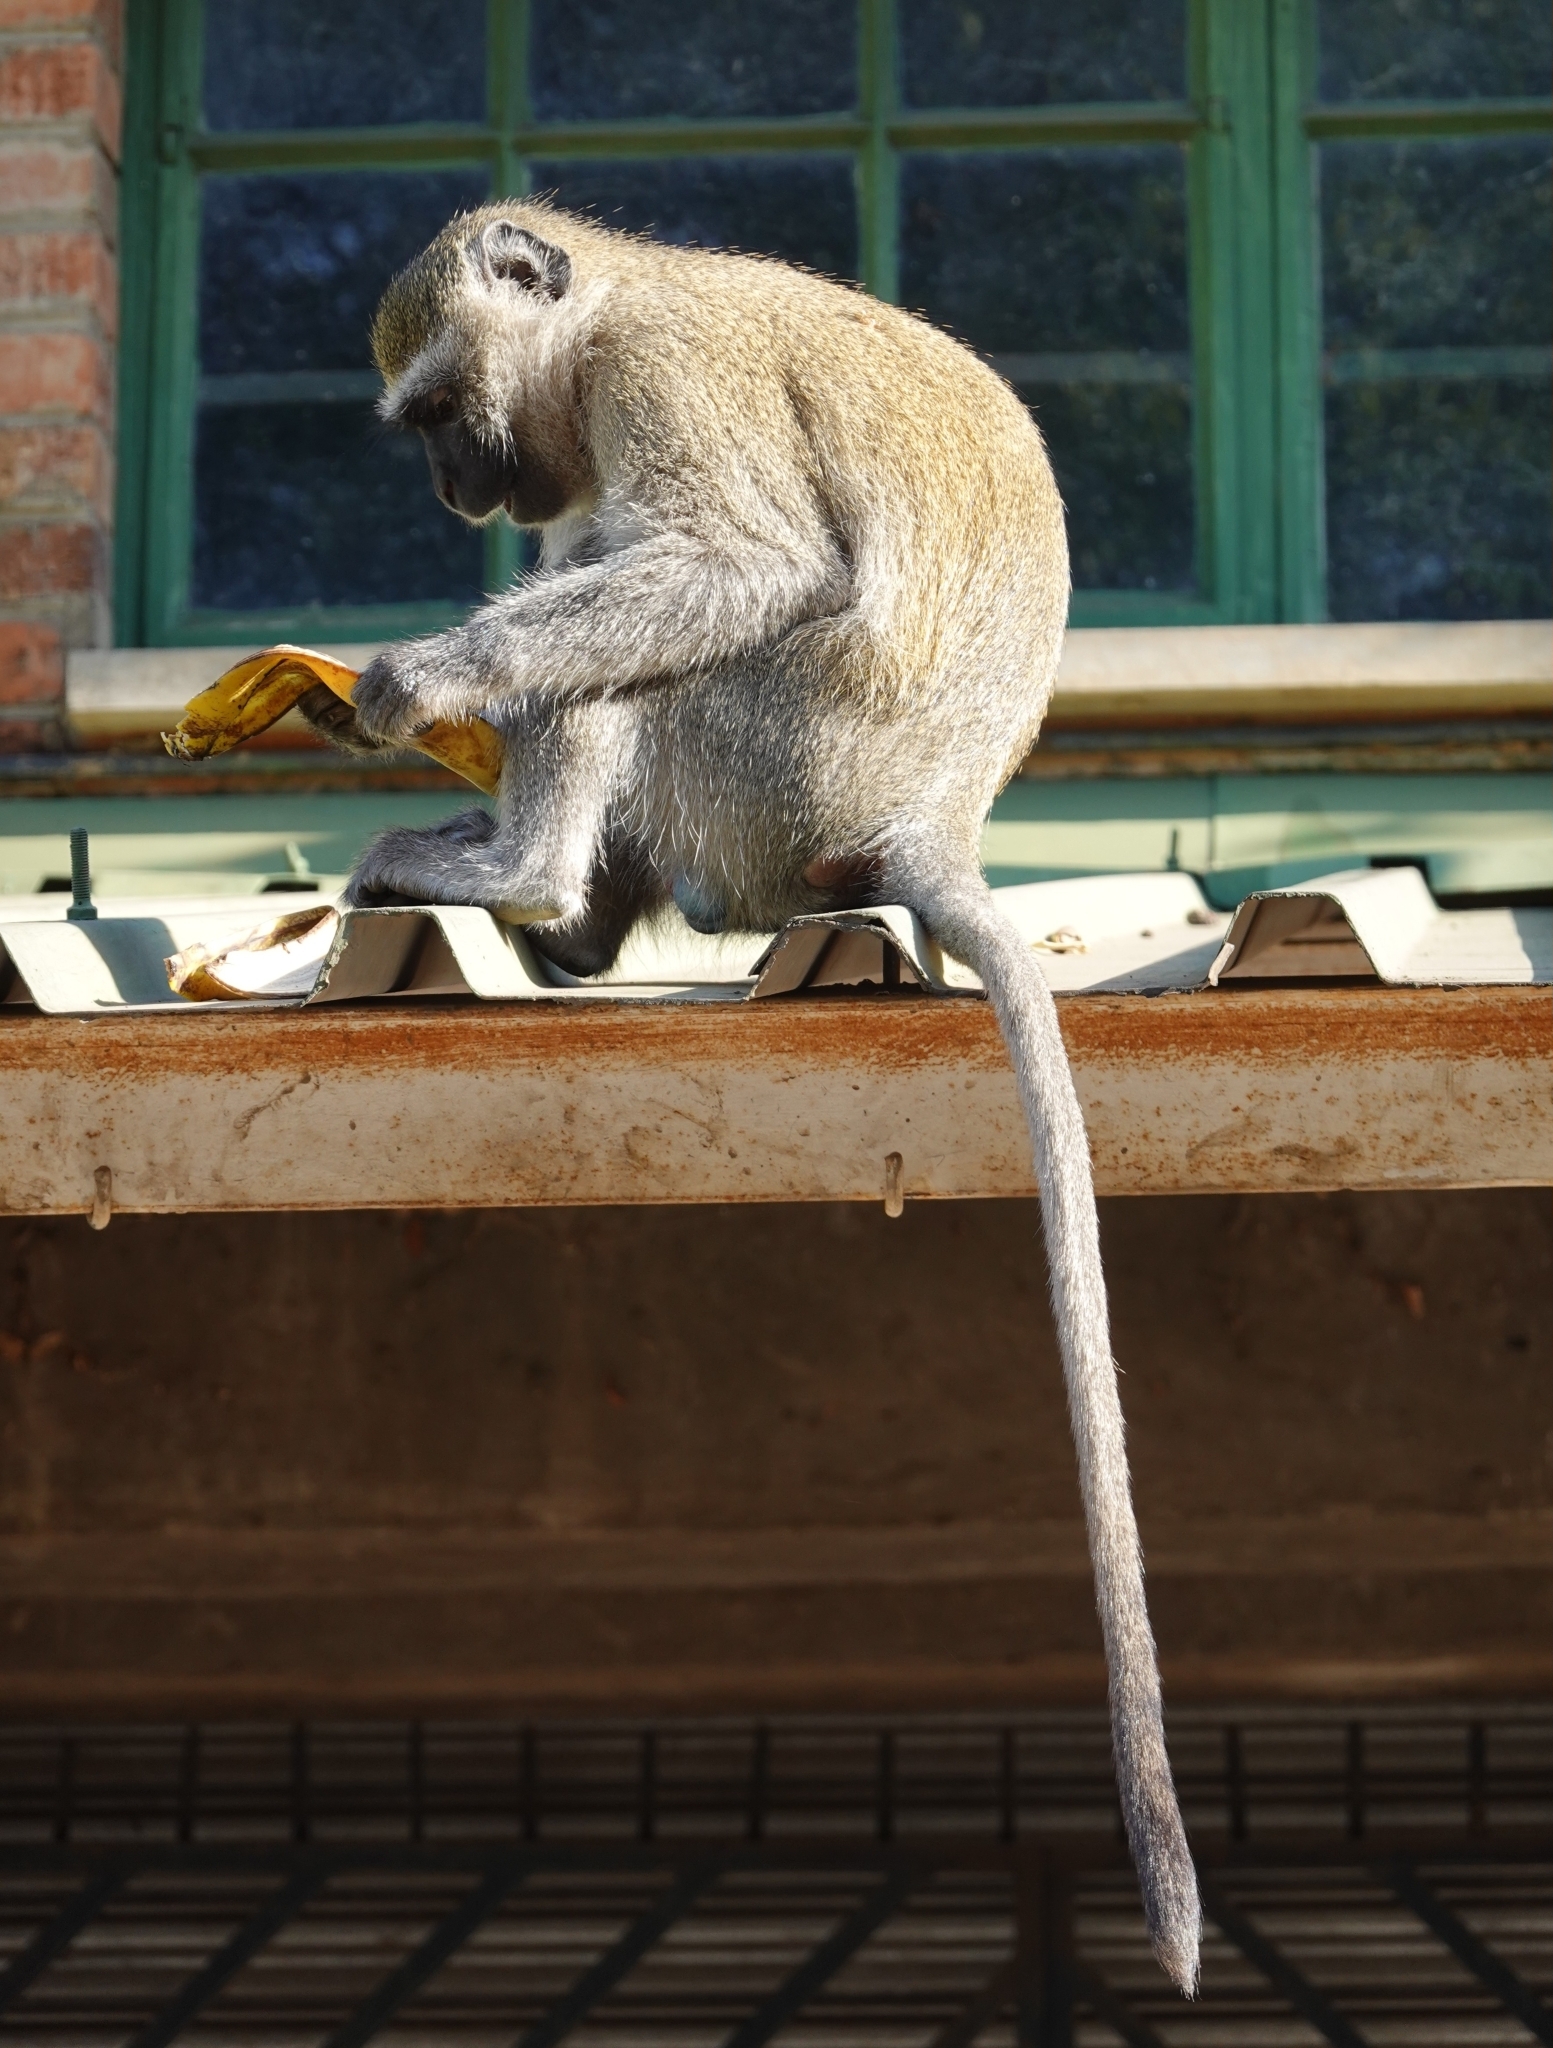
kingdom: Animalia
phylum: Chordata
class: Mammalia
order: Primates
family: Cercopithecidae
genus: Chlorocebus
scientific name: Chlorocebus pygerythrus
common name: Vervet monkey
